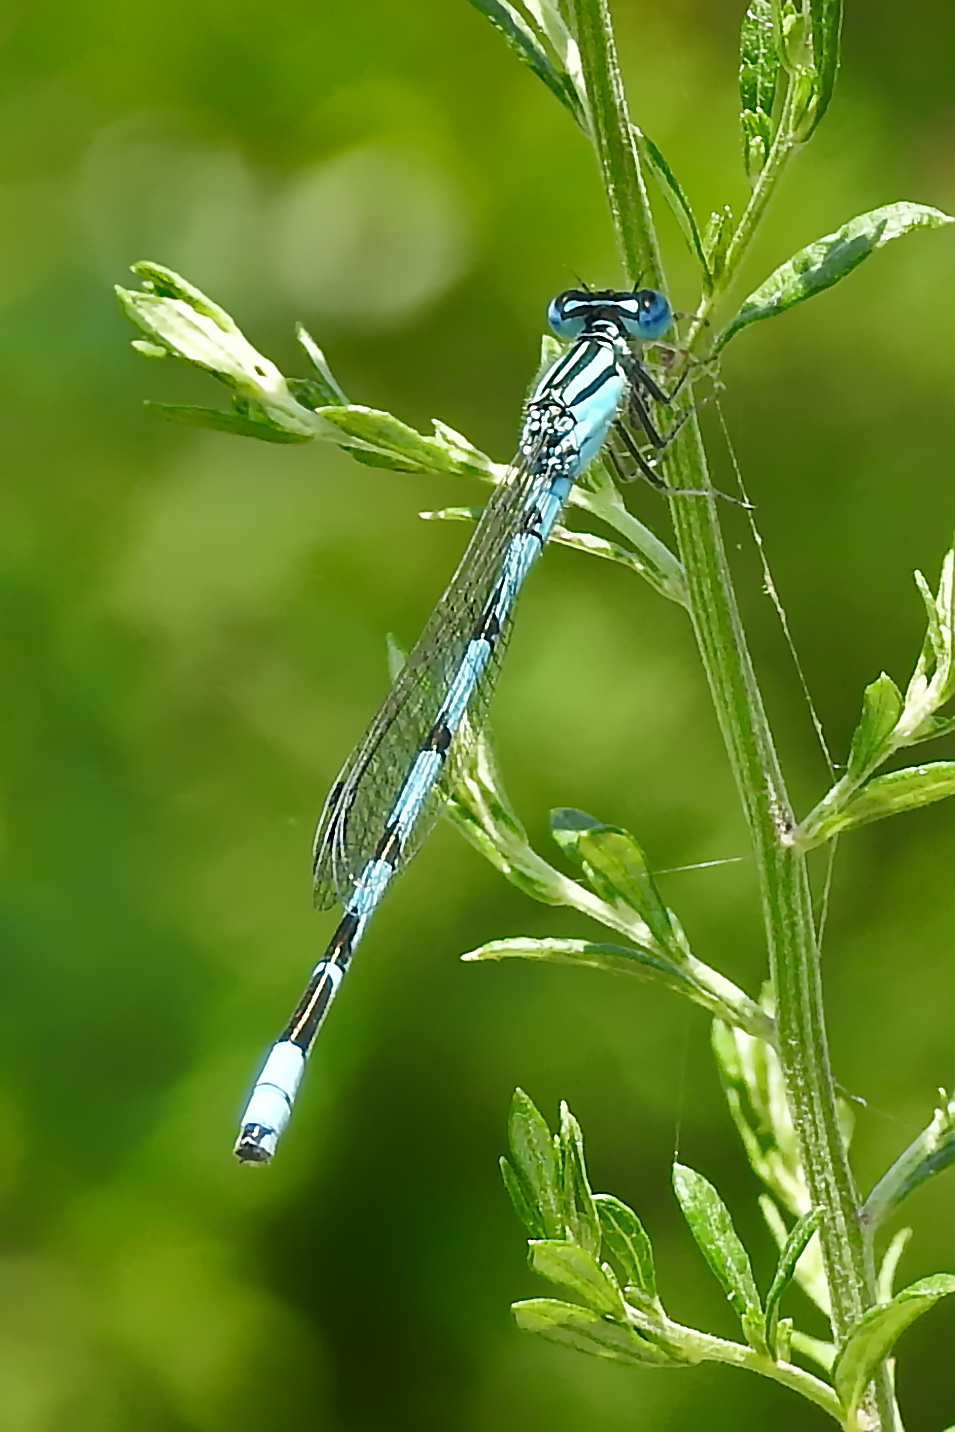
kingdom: Animalia
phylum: Arthropoda
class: Insecta
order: Odonata
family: Coenagrionidae
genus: Enallagma
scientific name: Enallagma durum
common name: Big bluet
